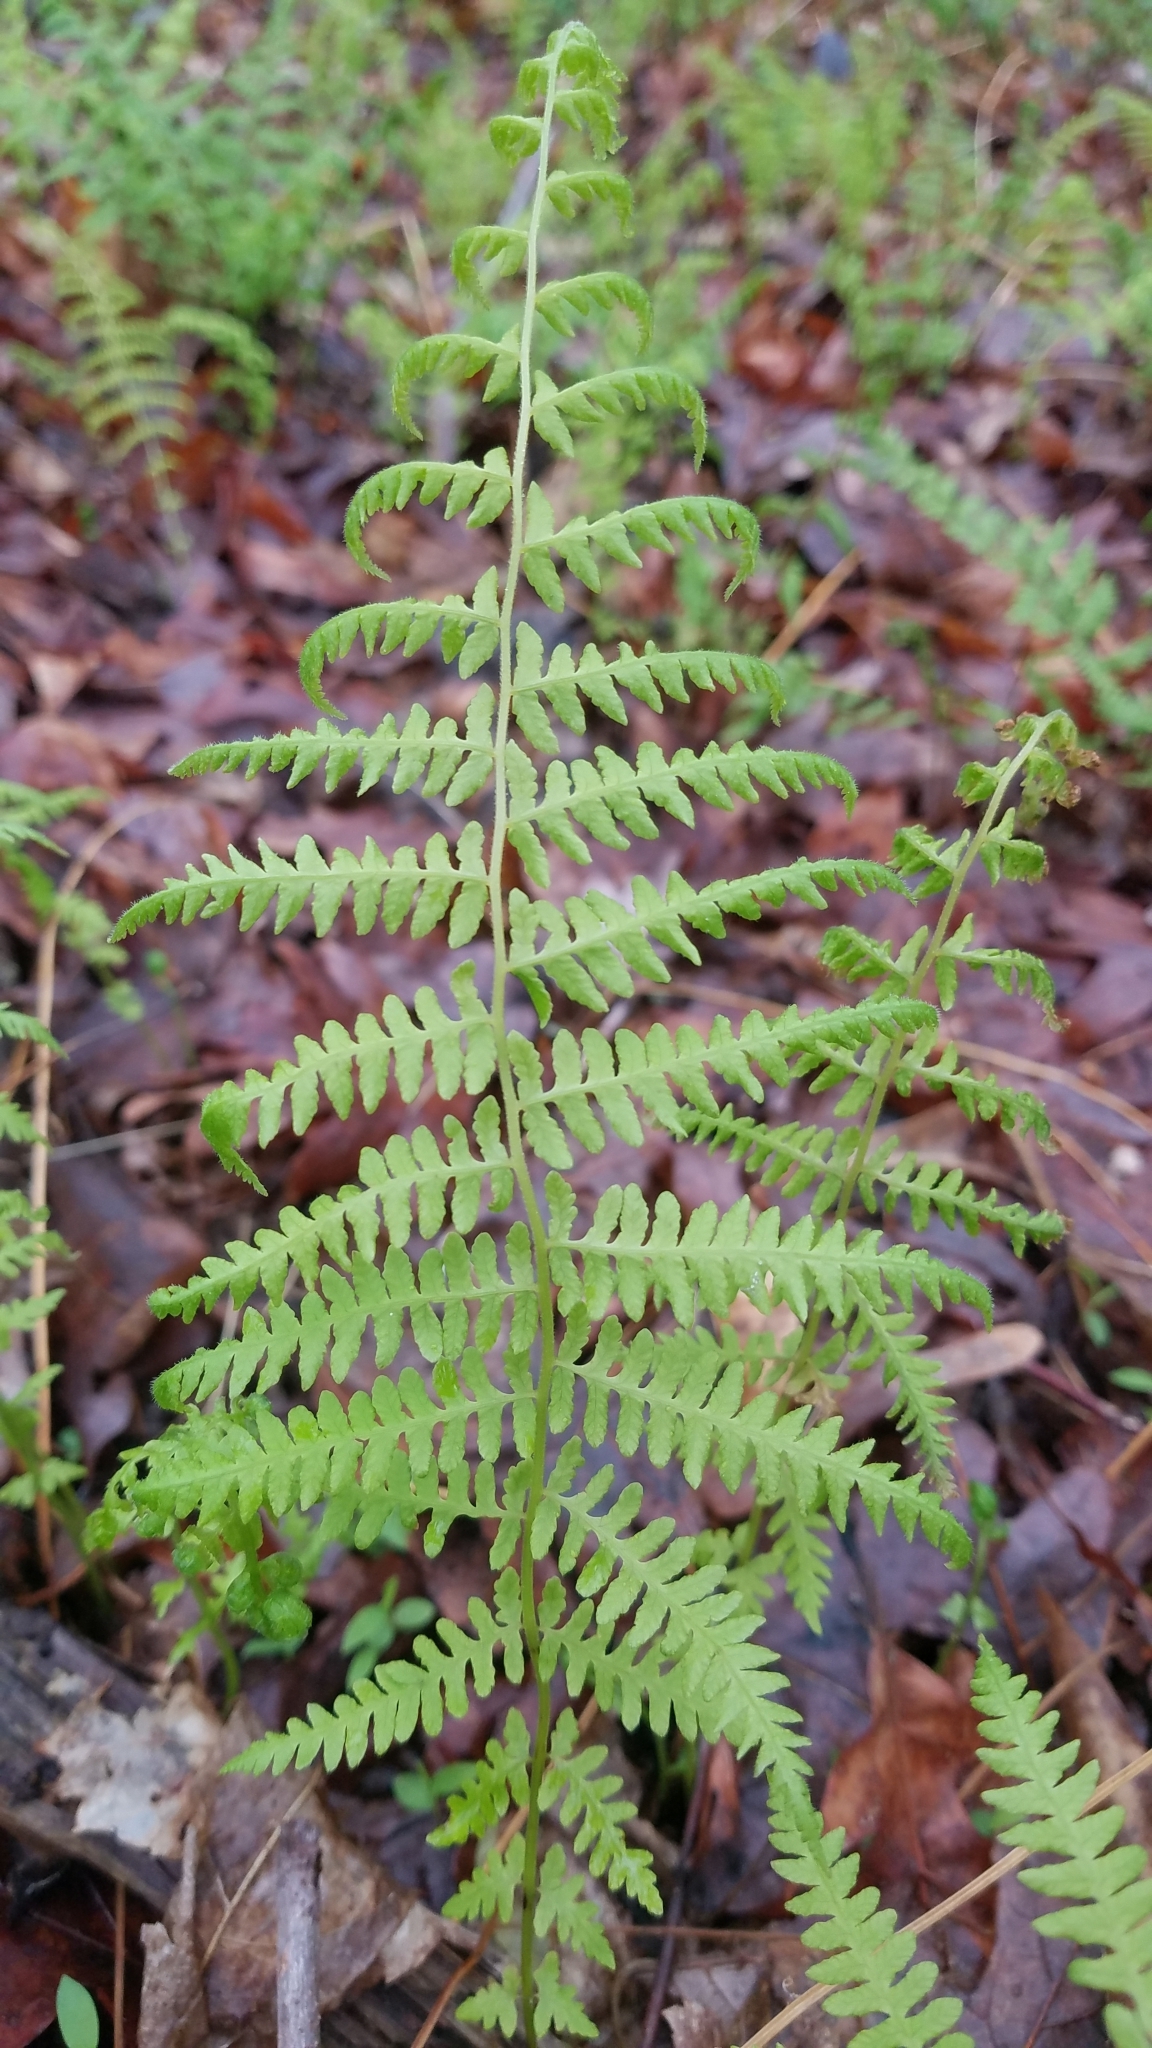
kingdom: Plantae
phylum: Tracheophyta
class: Polypodiopsida
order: Polypodiales
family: Athyriaceae
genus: Athyrium
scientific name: Athyrium asplenioides
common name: Southern lady fern
